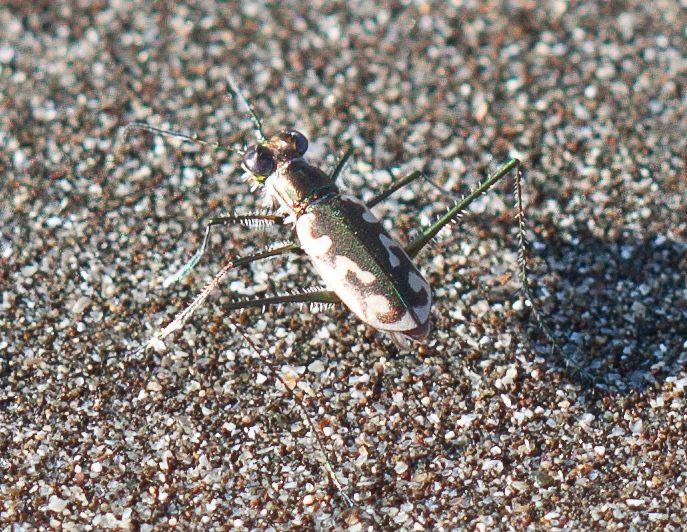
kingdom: Animalia
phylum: Arthropoda
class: Insecta
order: Coleoptera
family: Carabidae
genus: Opilidia
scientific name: Opilidia macrocnema
